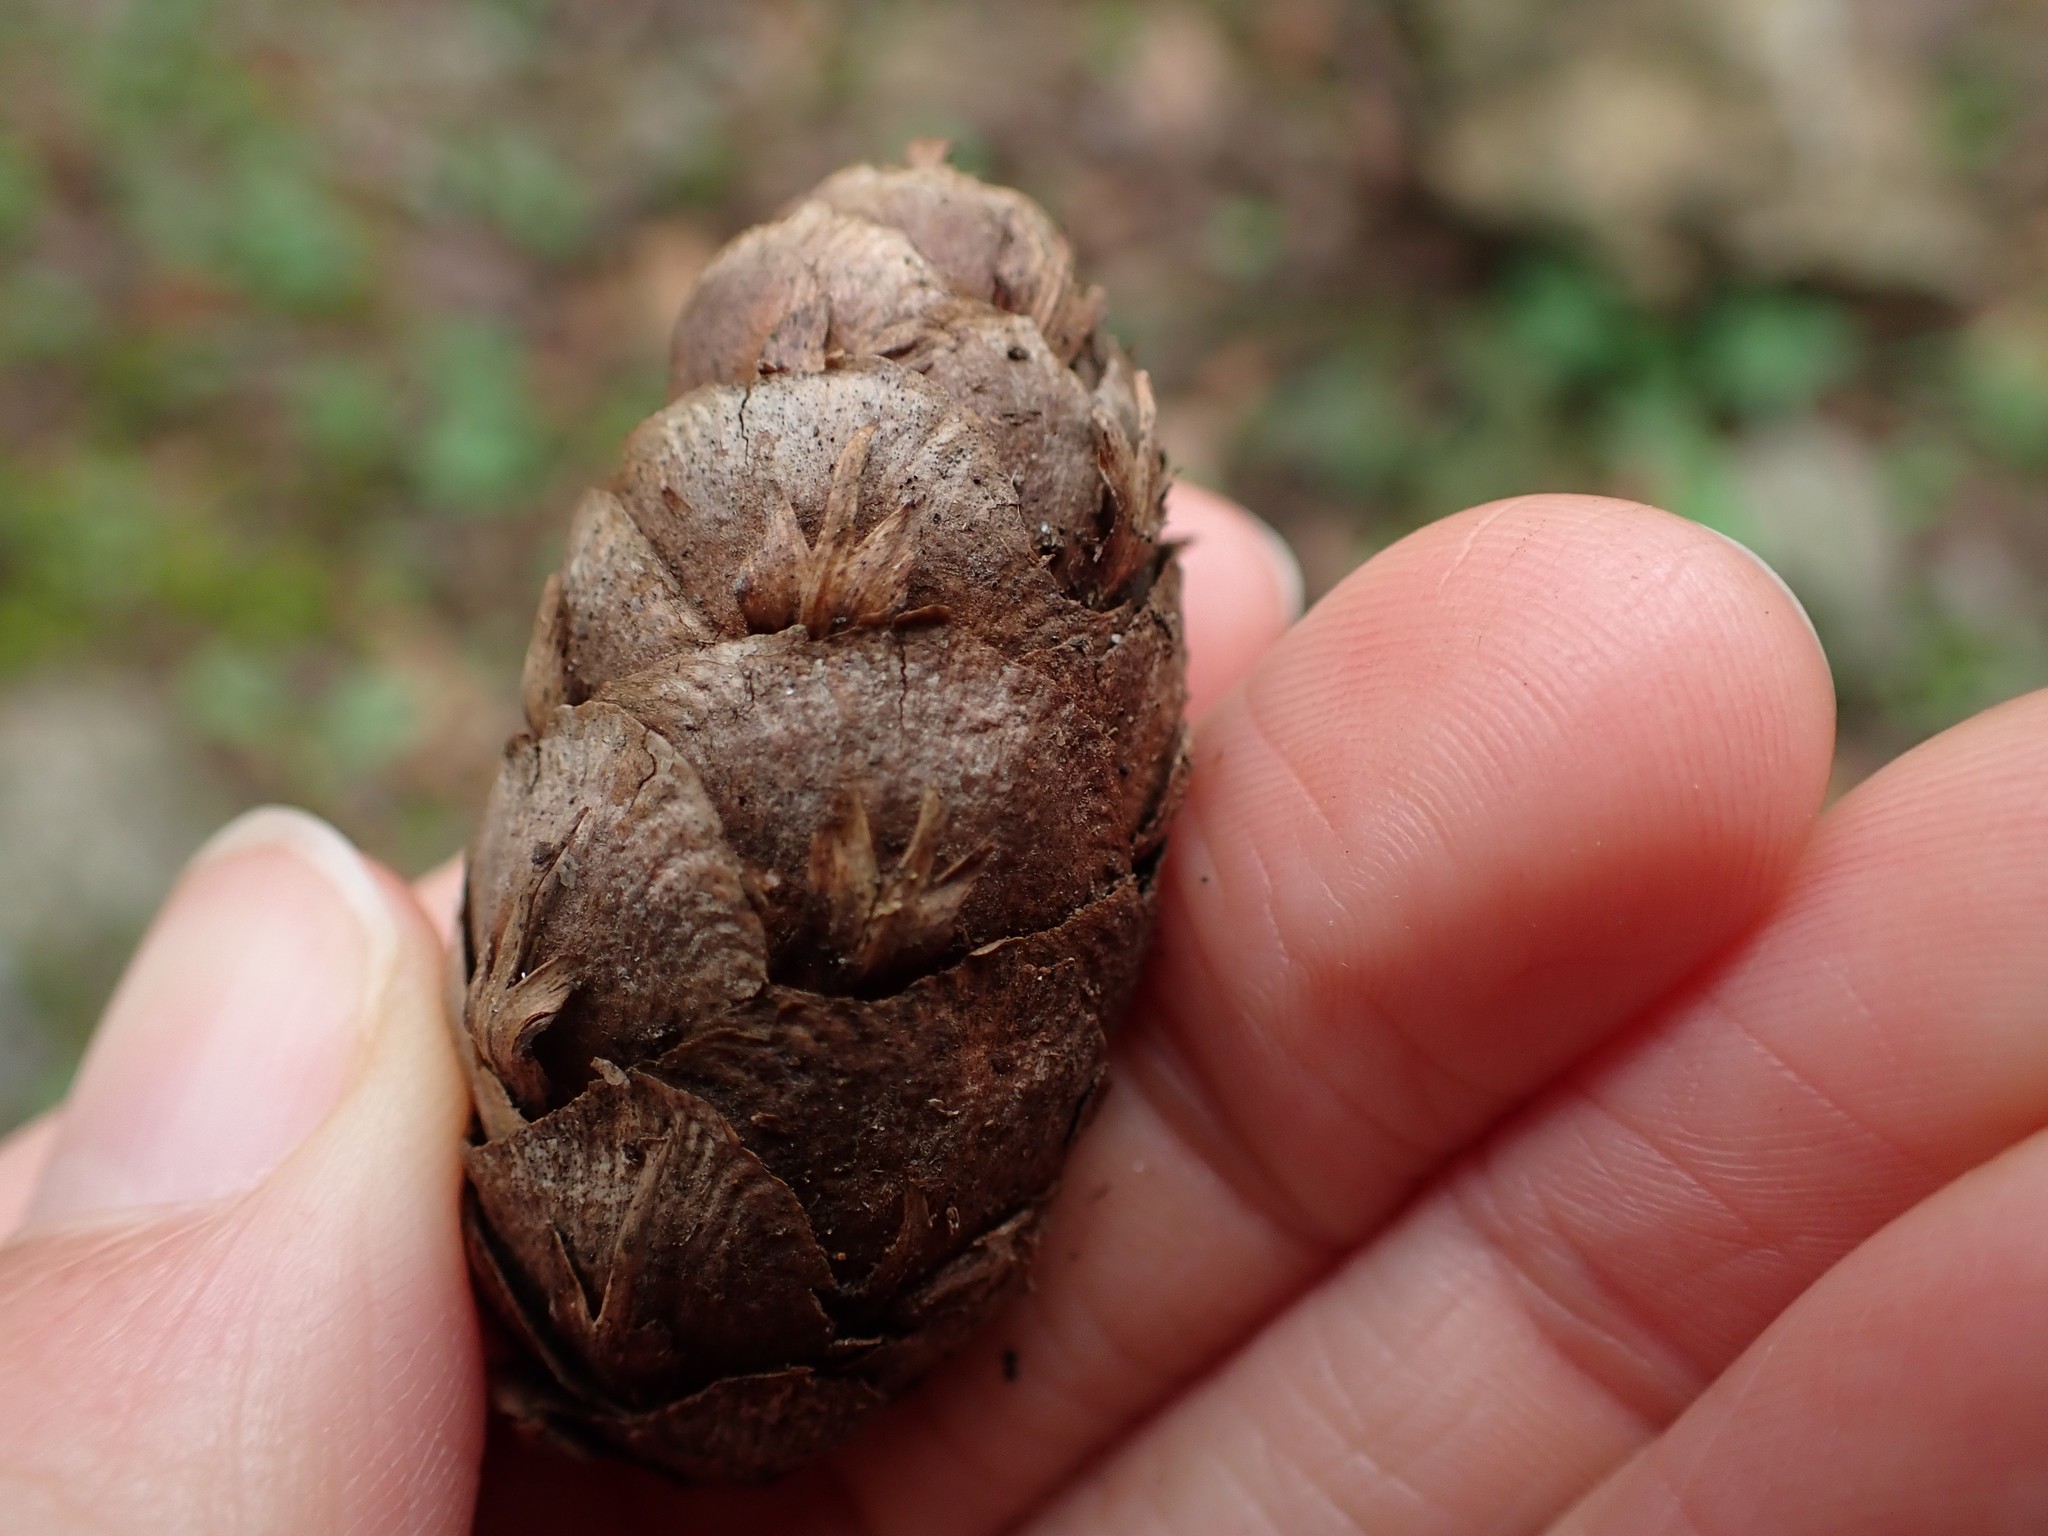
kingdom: Plantae
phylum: Tracheophyta
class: Pinopsida
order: Pinales
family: Pinaceae
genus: Pseudotsuga
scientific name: Pseudotsuga menziesii
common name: Douglas fir
